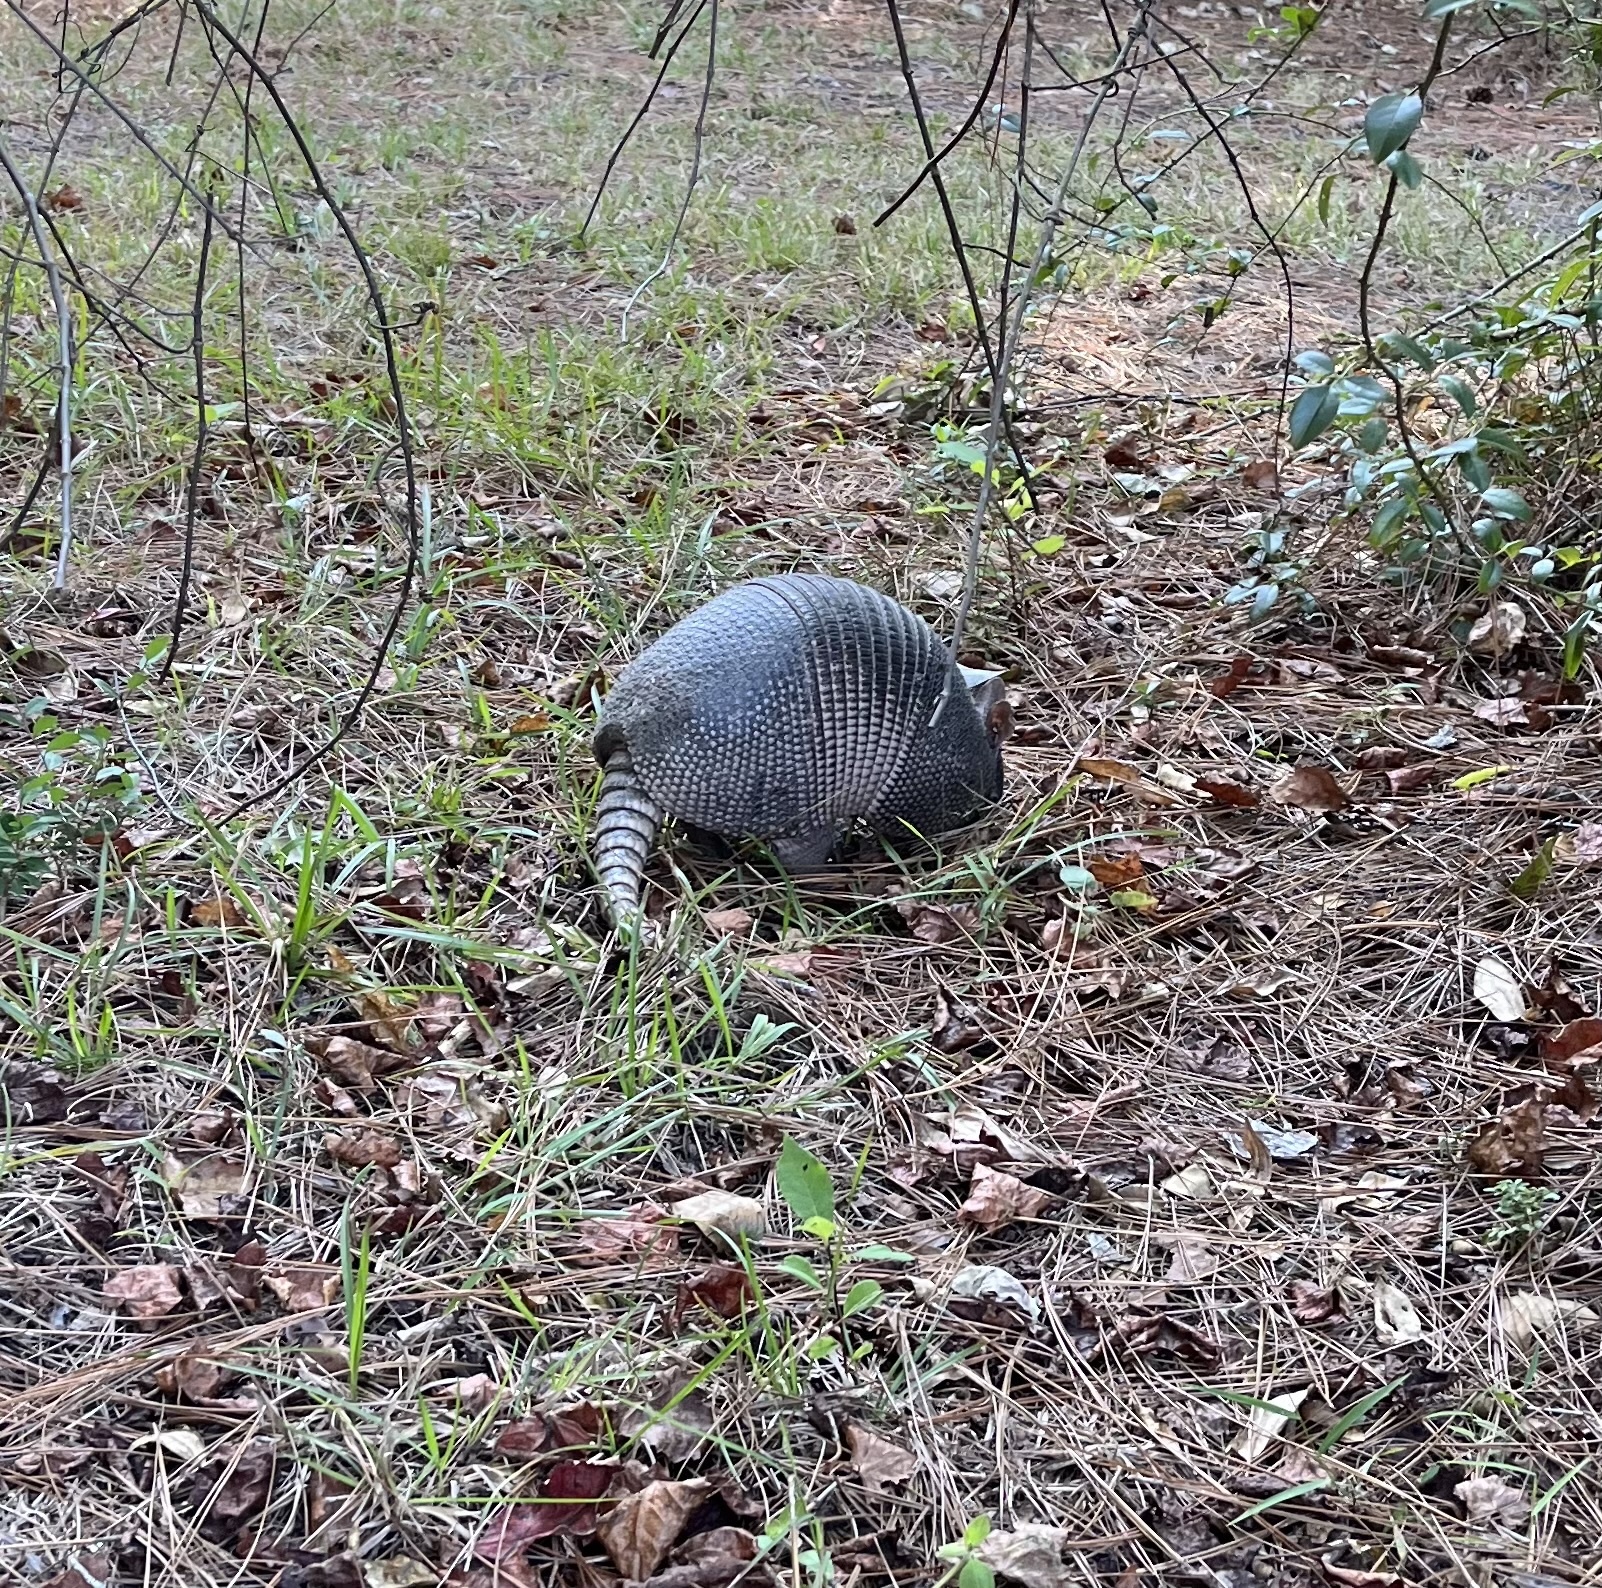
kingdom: Animalia
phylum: Chordata
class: Mammalia
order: Cingulata
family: Dasypodidae
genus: Dasypus
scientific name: Dasypus novemcinctus
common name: Nine-banded armadillo
